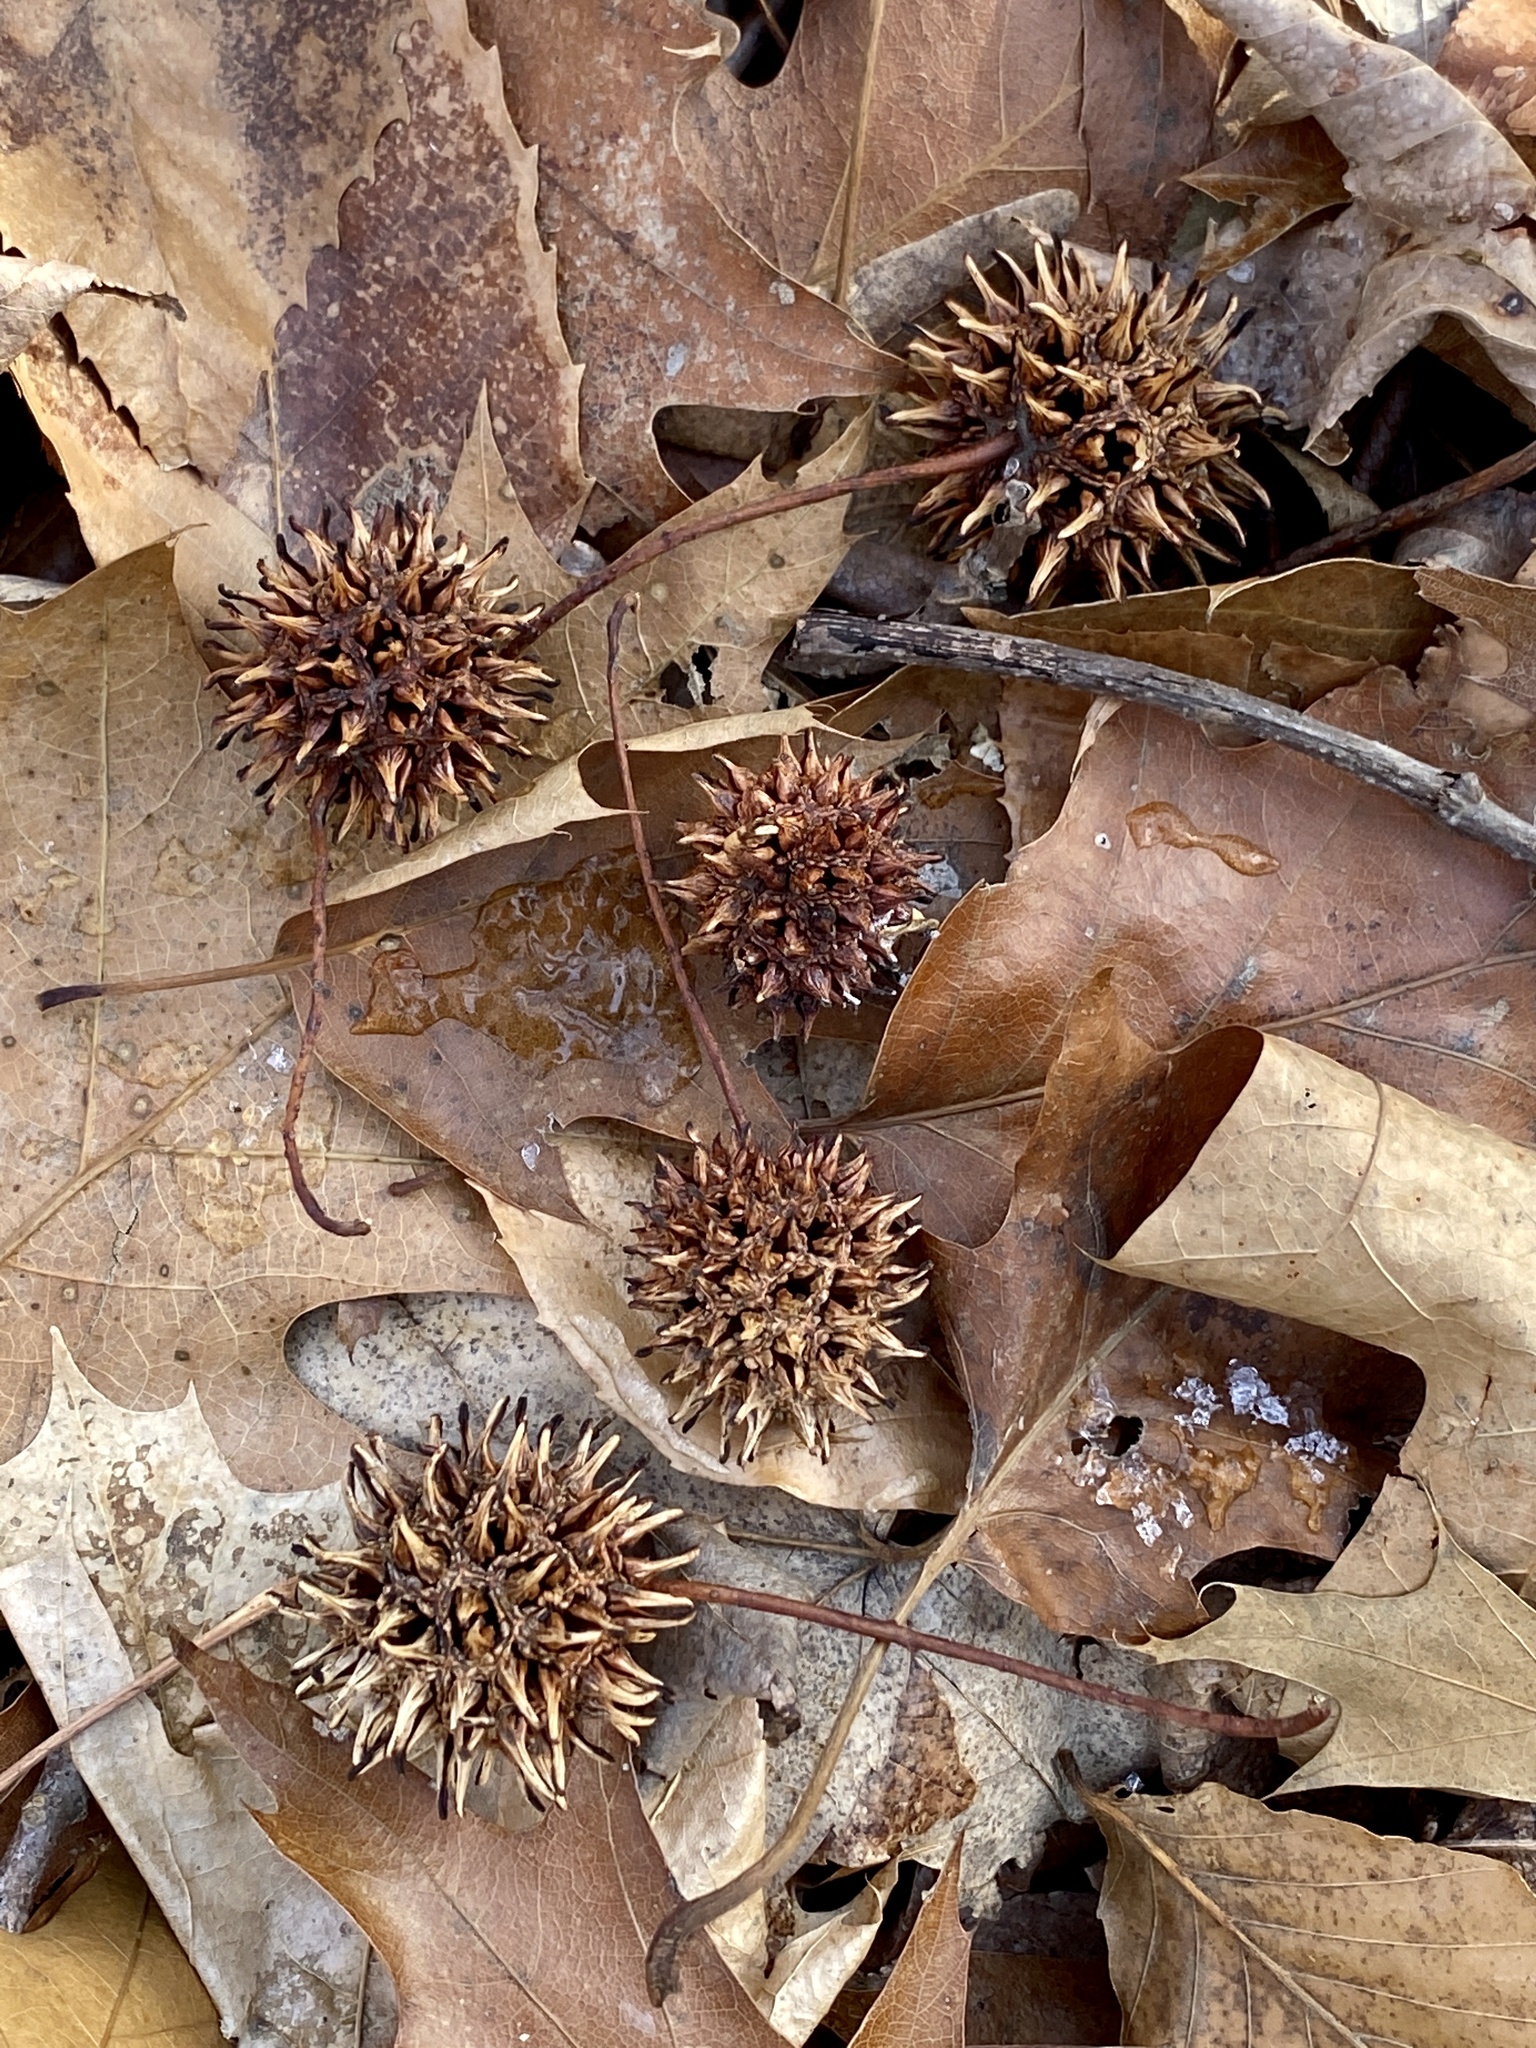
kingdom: Plantae
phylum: Tracheophyta
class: Magnoliopsida
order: Saxifragales
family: Altingiaceae
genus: Liquidambar
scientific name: Liquidambar styraciflua
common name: Sweet gum
